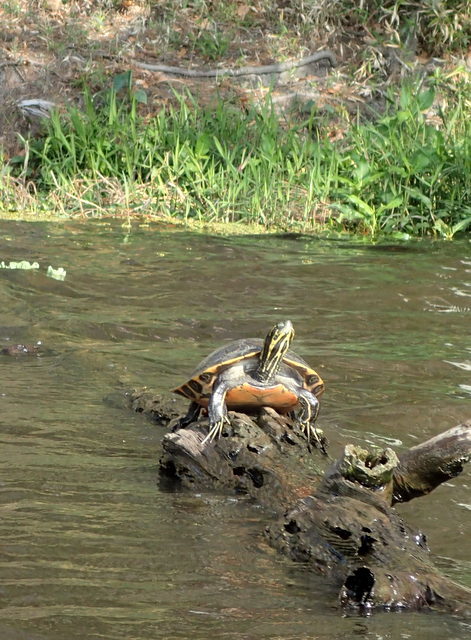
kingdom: Animalia
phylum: Chordata
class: Testudines
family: Emydidae
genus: Pseudemys
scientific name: Pseudemys concinna
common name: Eastern river cooter
